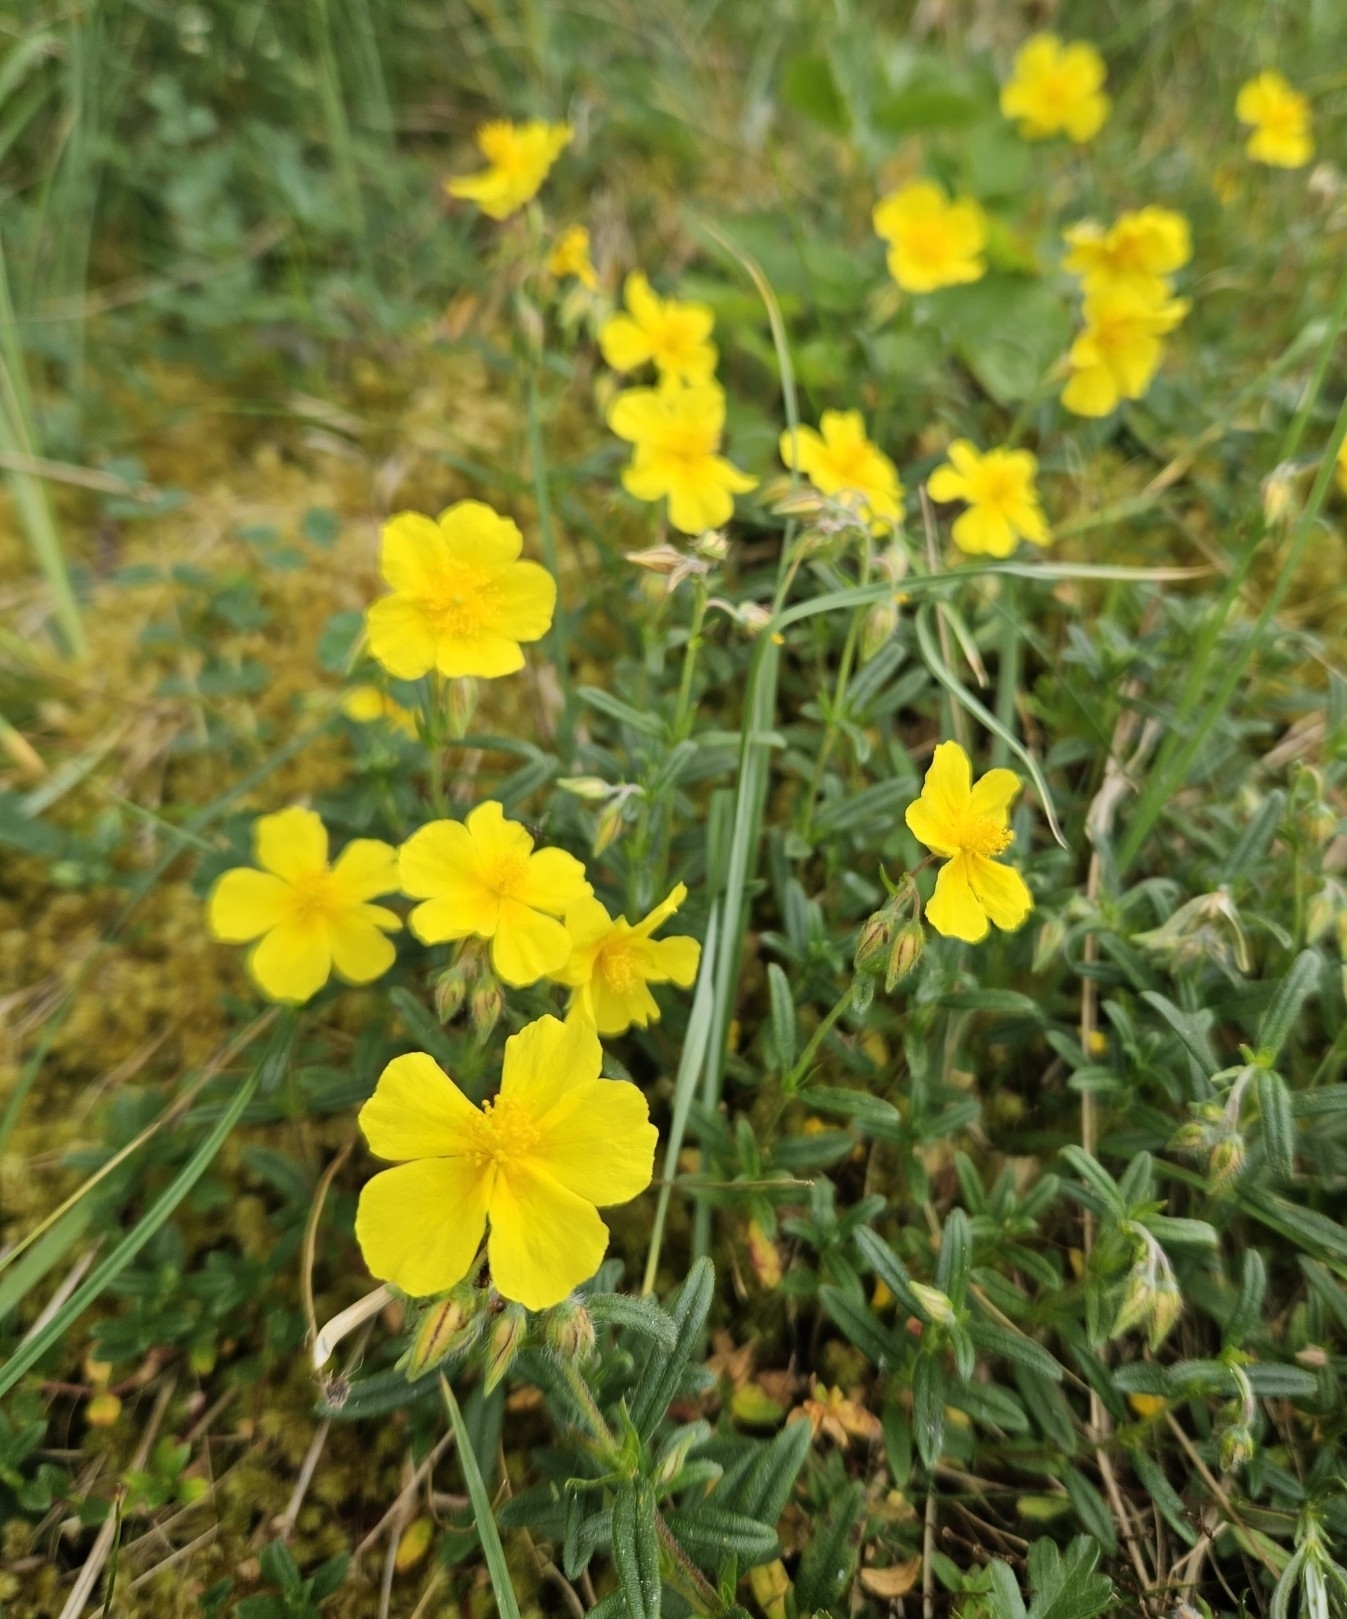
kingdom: Plantae
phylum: Tracheophyta
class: Magnoliopsida
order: Malvales
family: Cistaceae
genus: Helianthemum
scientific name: Helianthemum nummularium
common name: Common rock-rose
